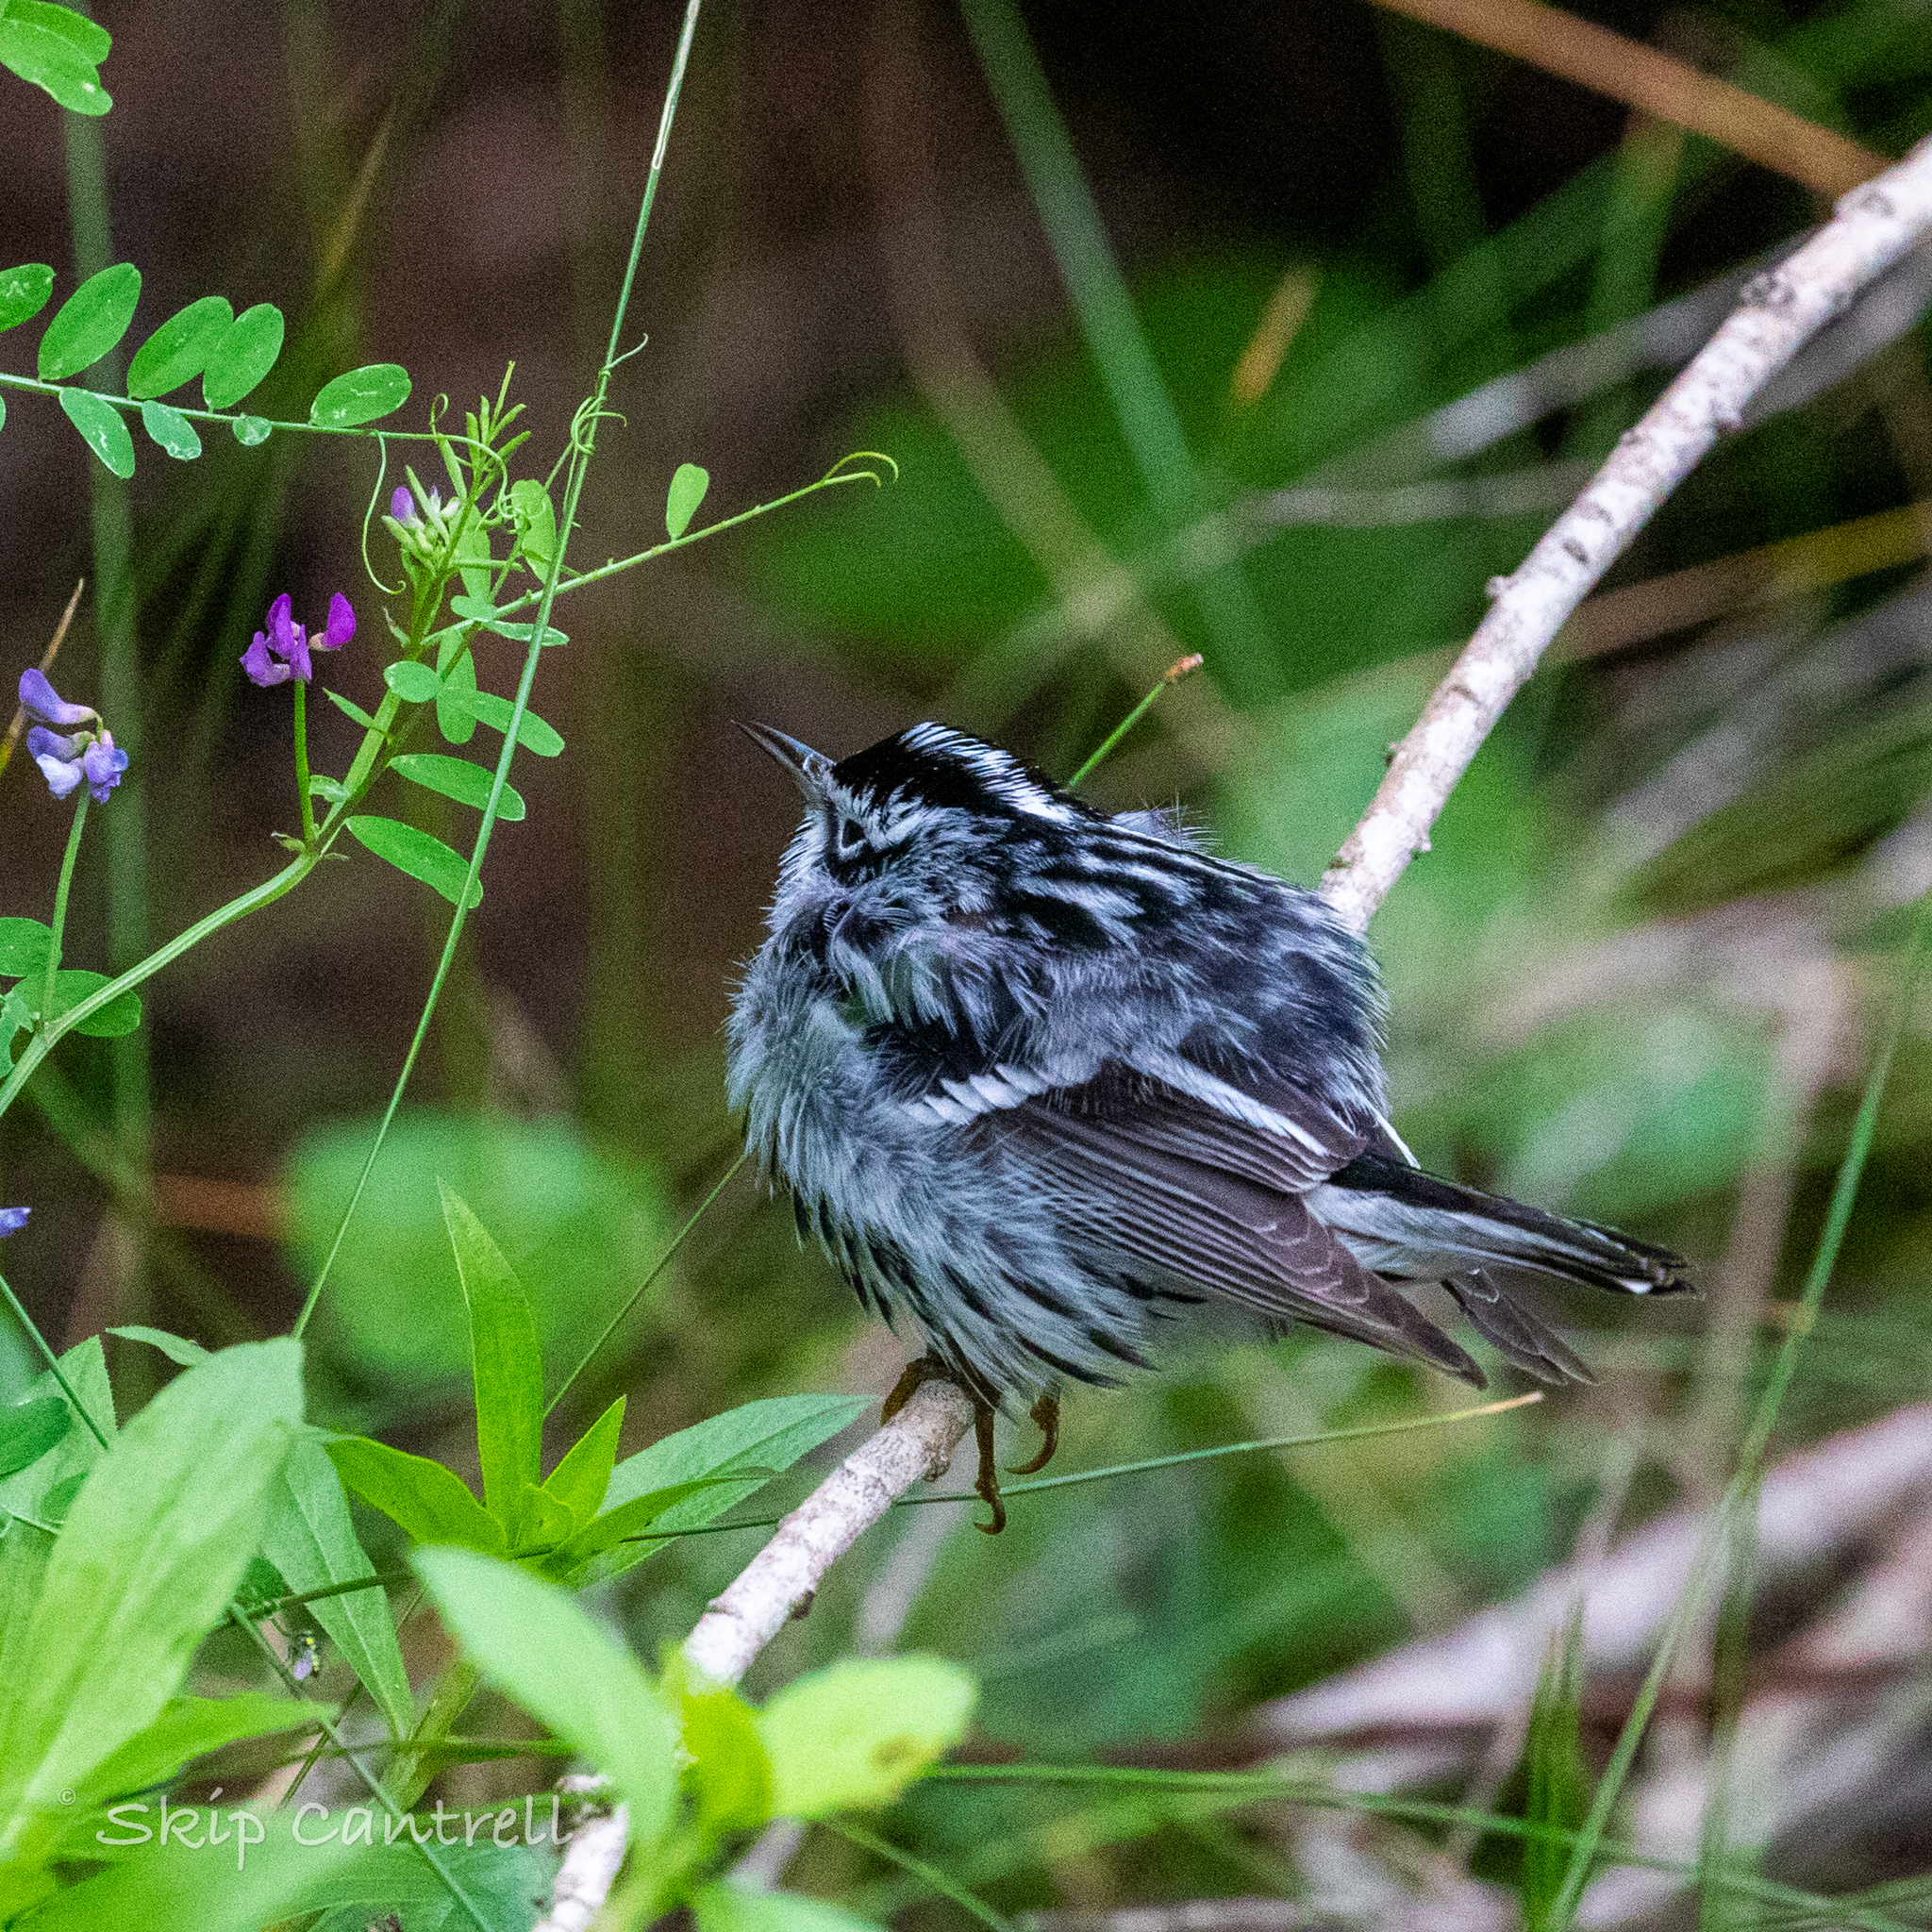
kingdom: Animalia
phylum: Chordata
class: Aves
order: Passeriformes
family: Parulidae
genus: Mniotilta
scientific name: Mniotilta varia
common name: Black-and-white warbler
